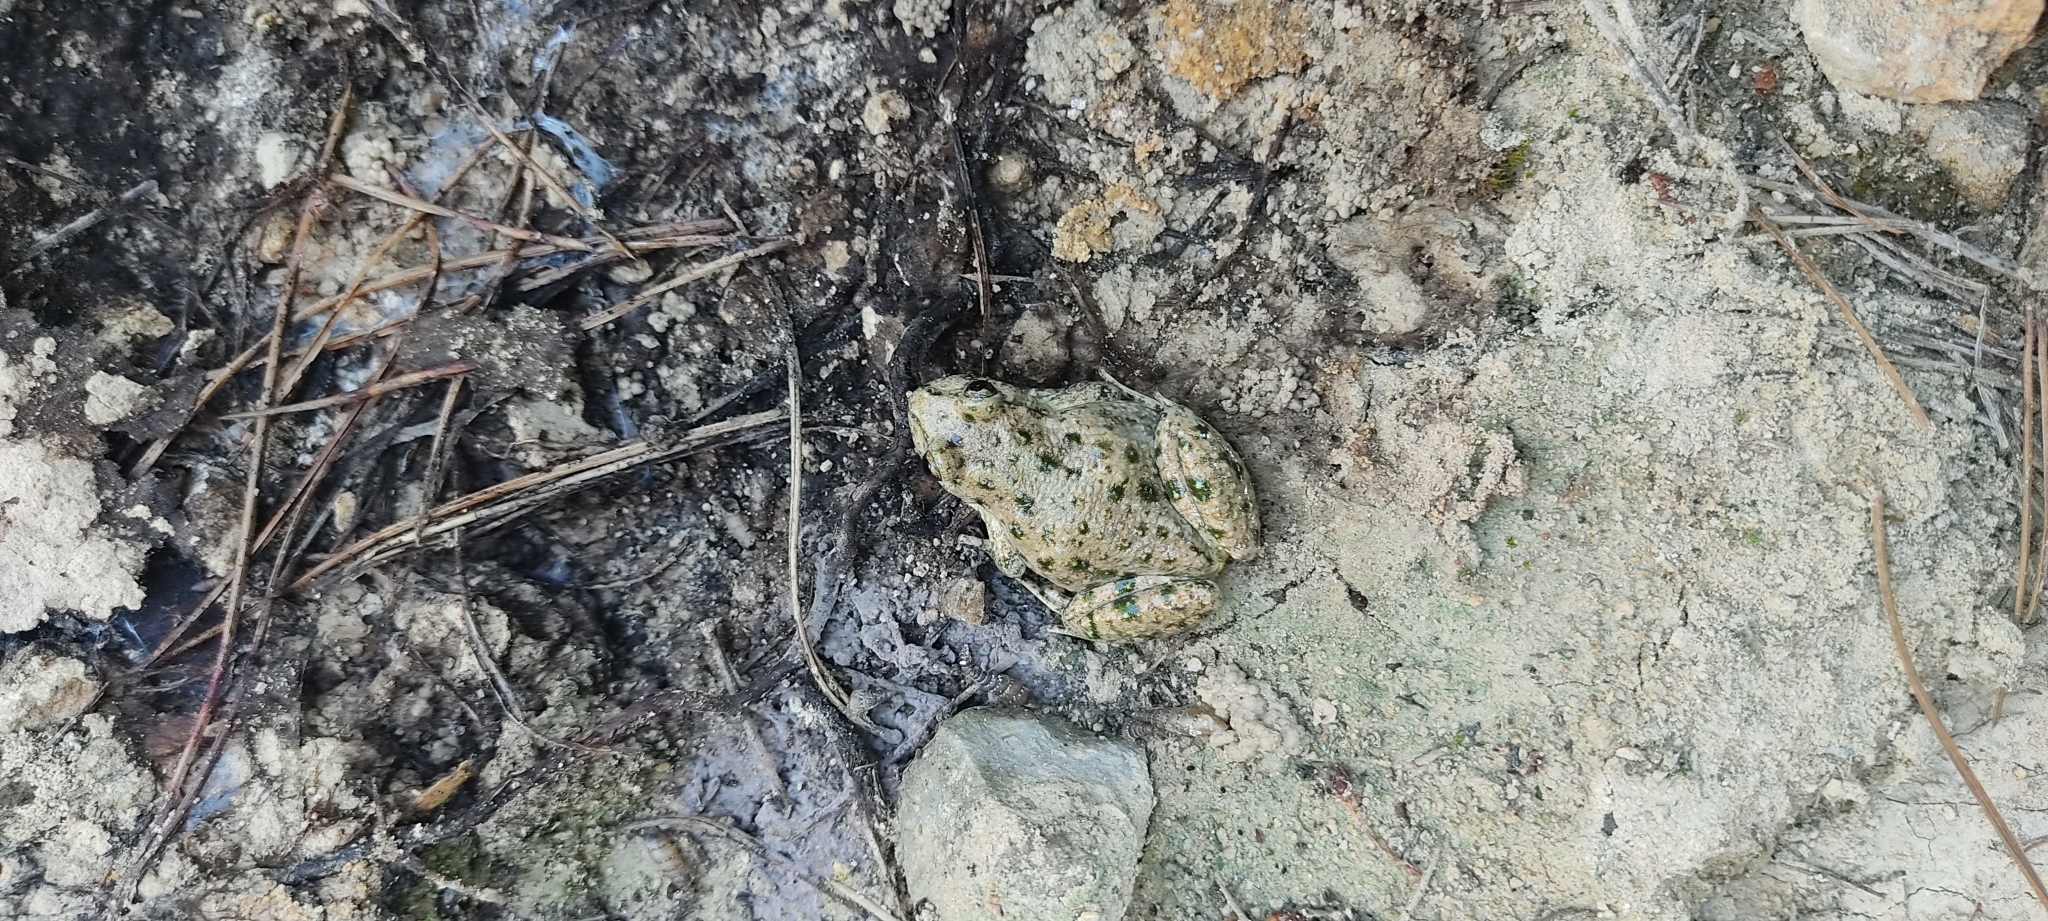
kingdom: Animalia
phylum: Chordata
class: Amphibia
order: Anura
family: Pelodytidae
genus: Pelodytes
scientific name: Pelodytes punctatus
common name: Parsley frog
